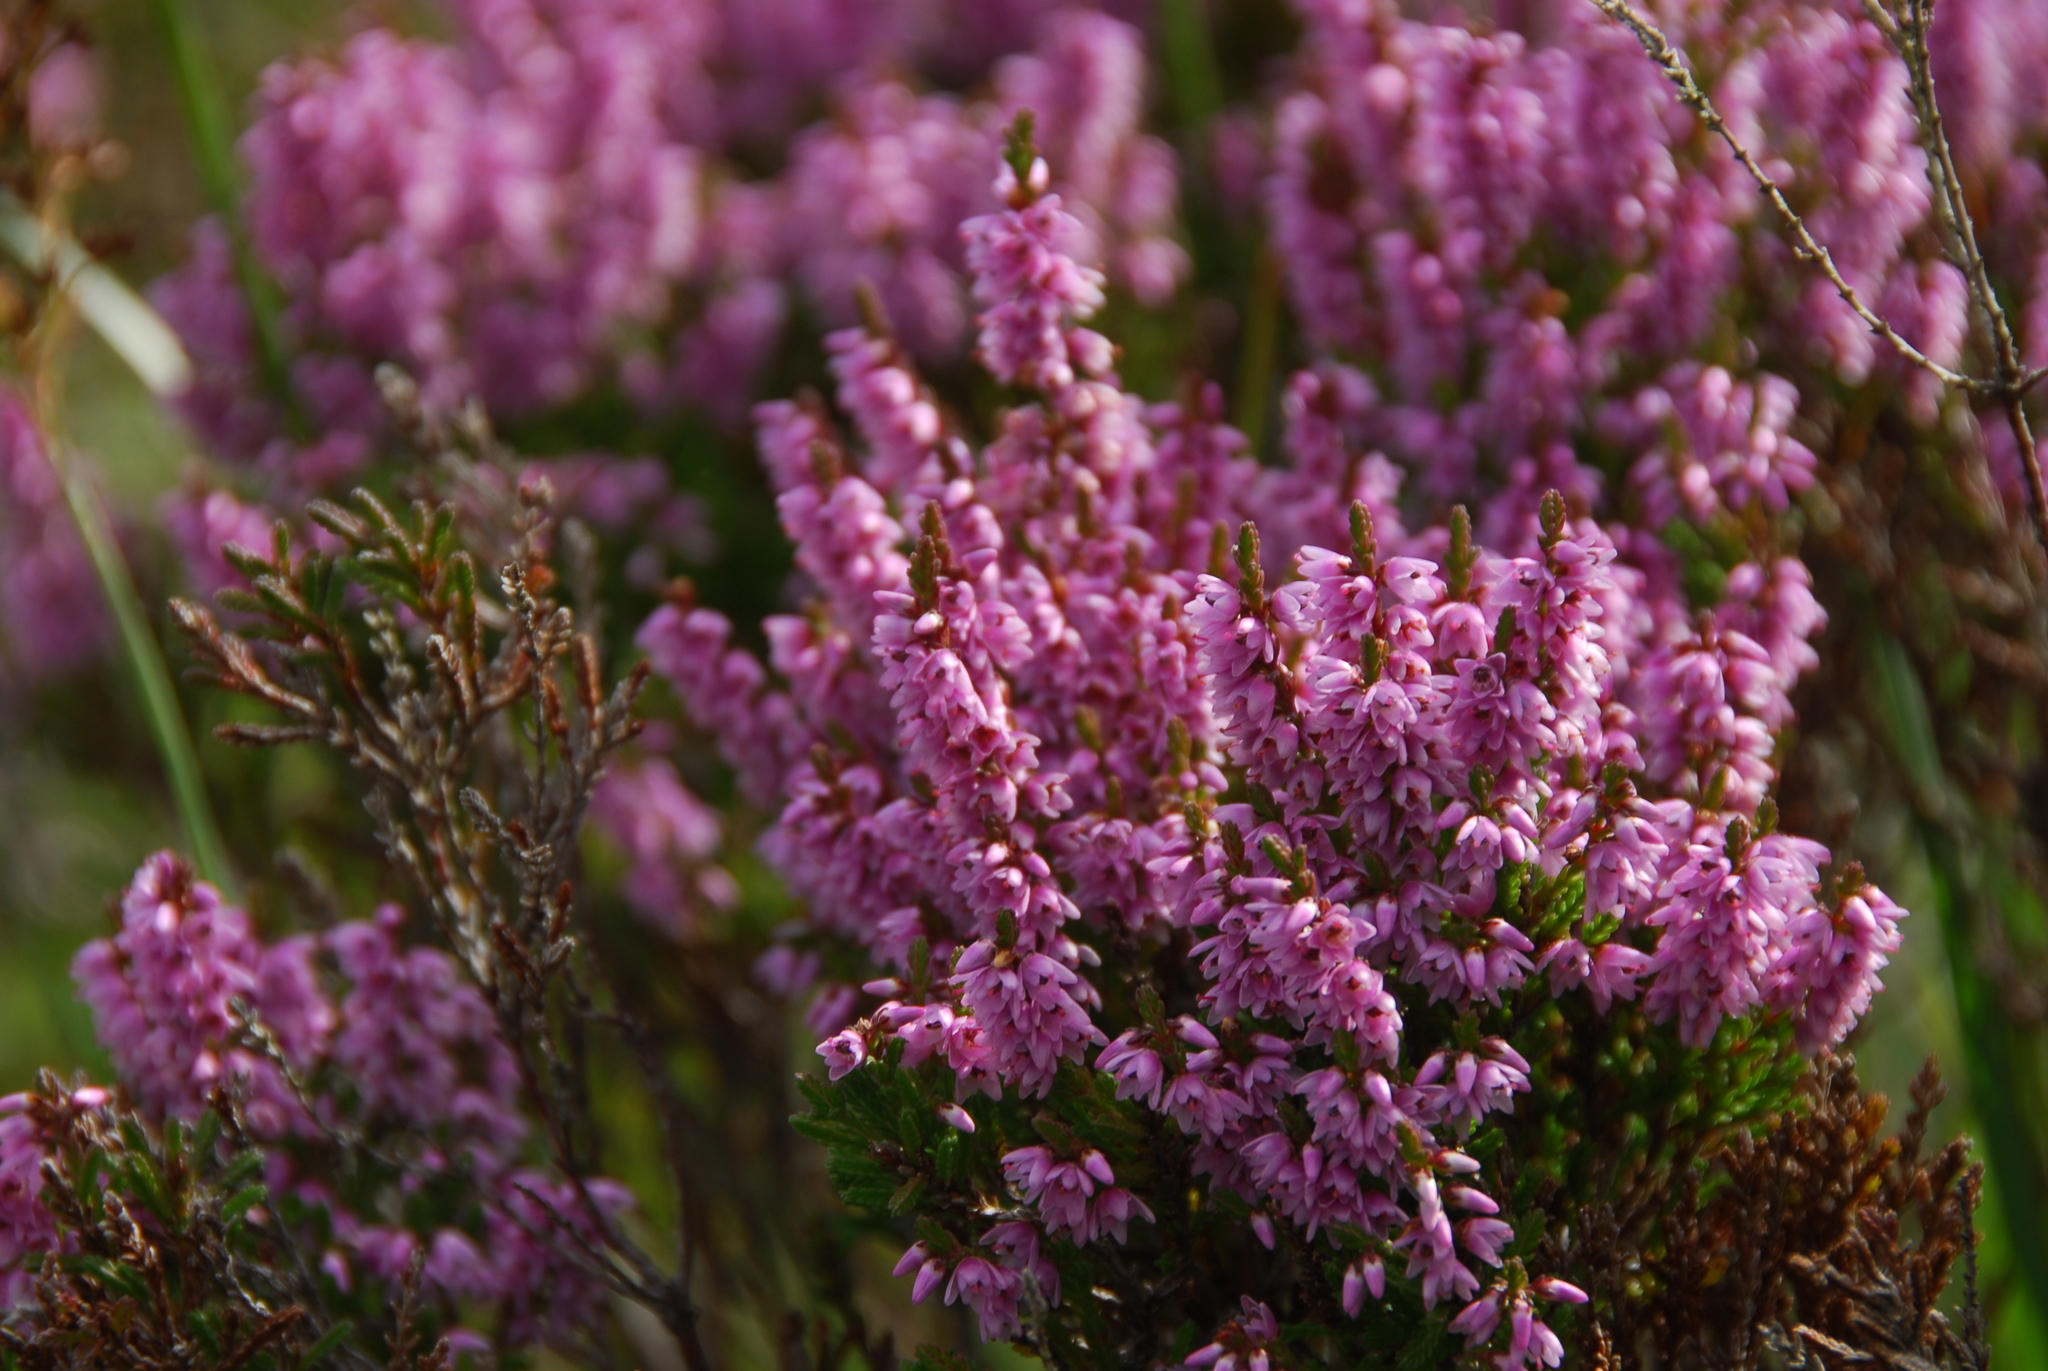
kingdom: Plantae
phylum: Tracheophyta
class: Magnoliopsida
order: Ericales
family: Ericaceae
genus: Calluna
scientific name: Calluna vulgaris
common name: Heather
